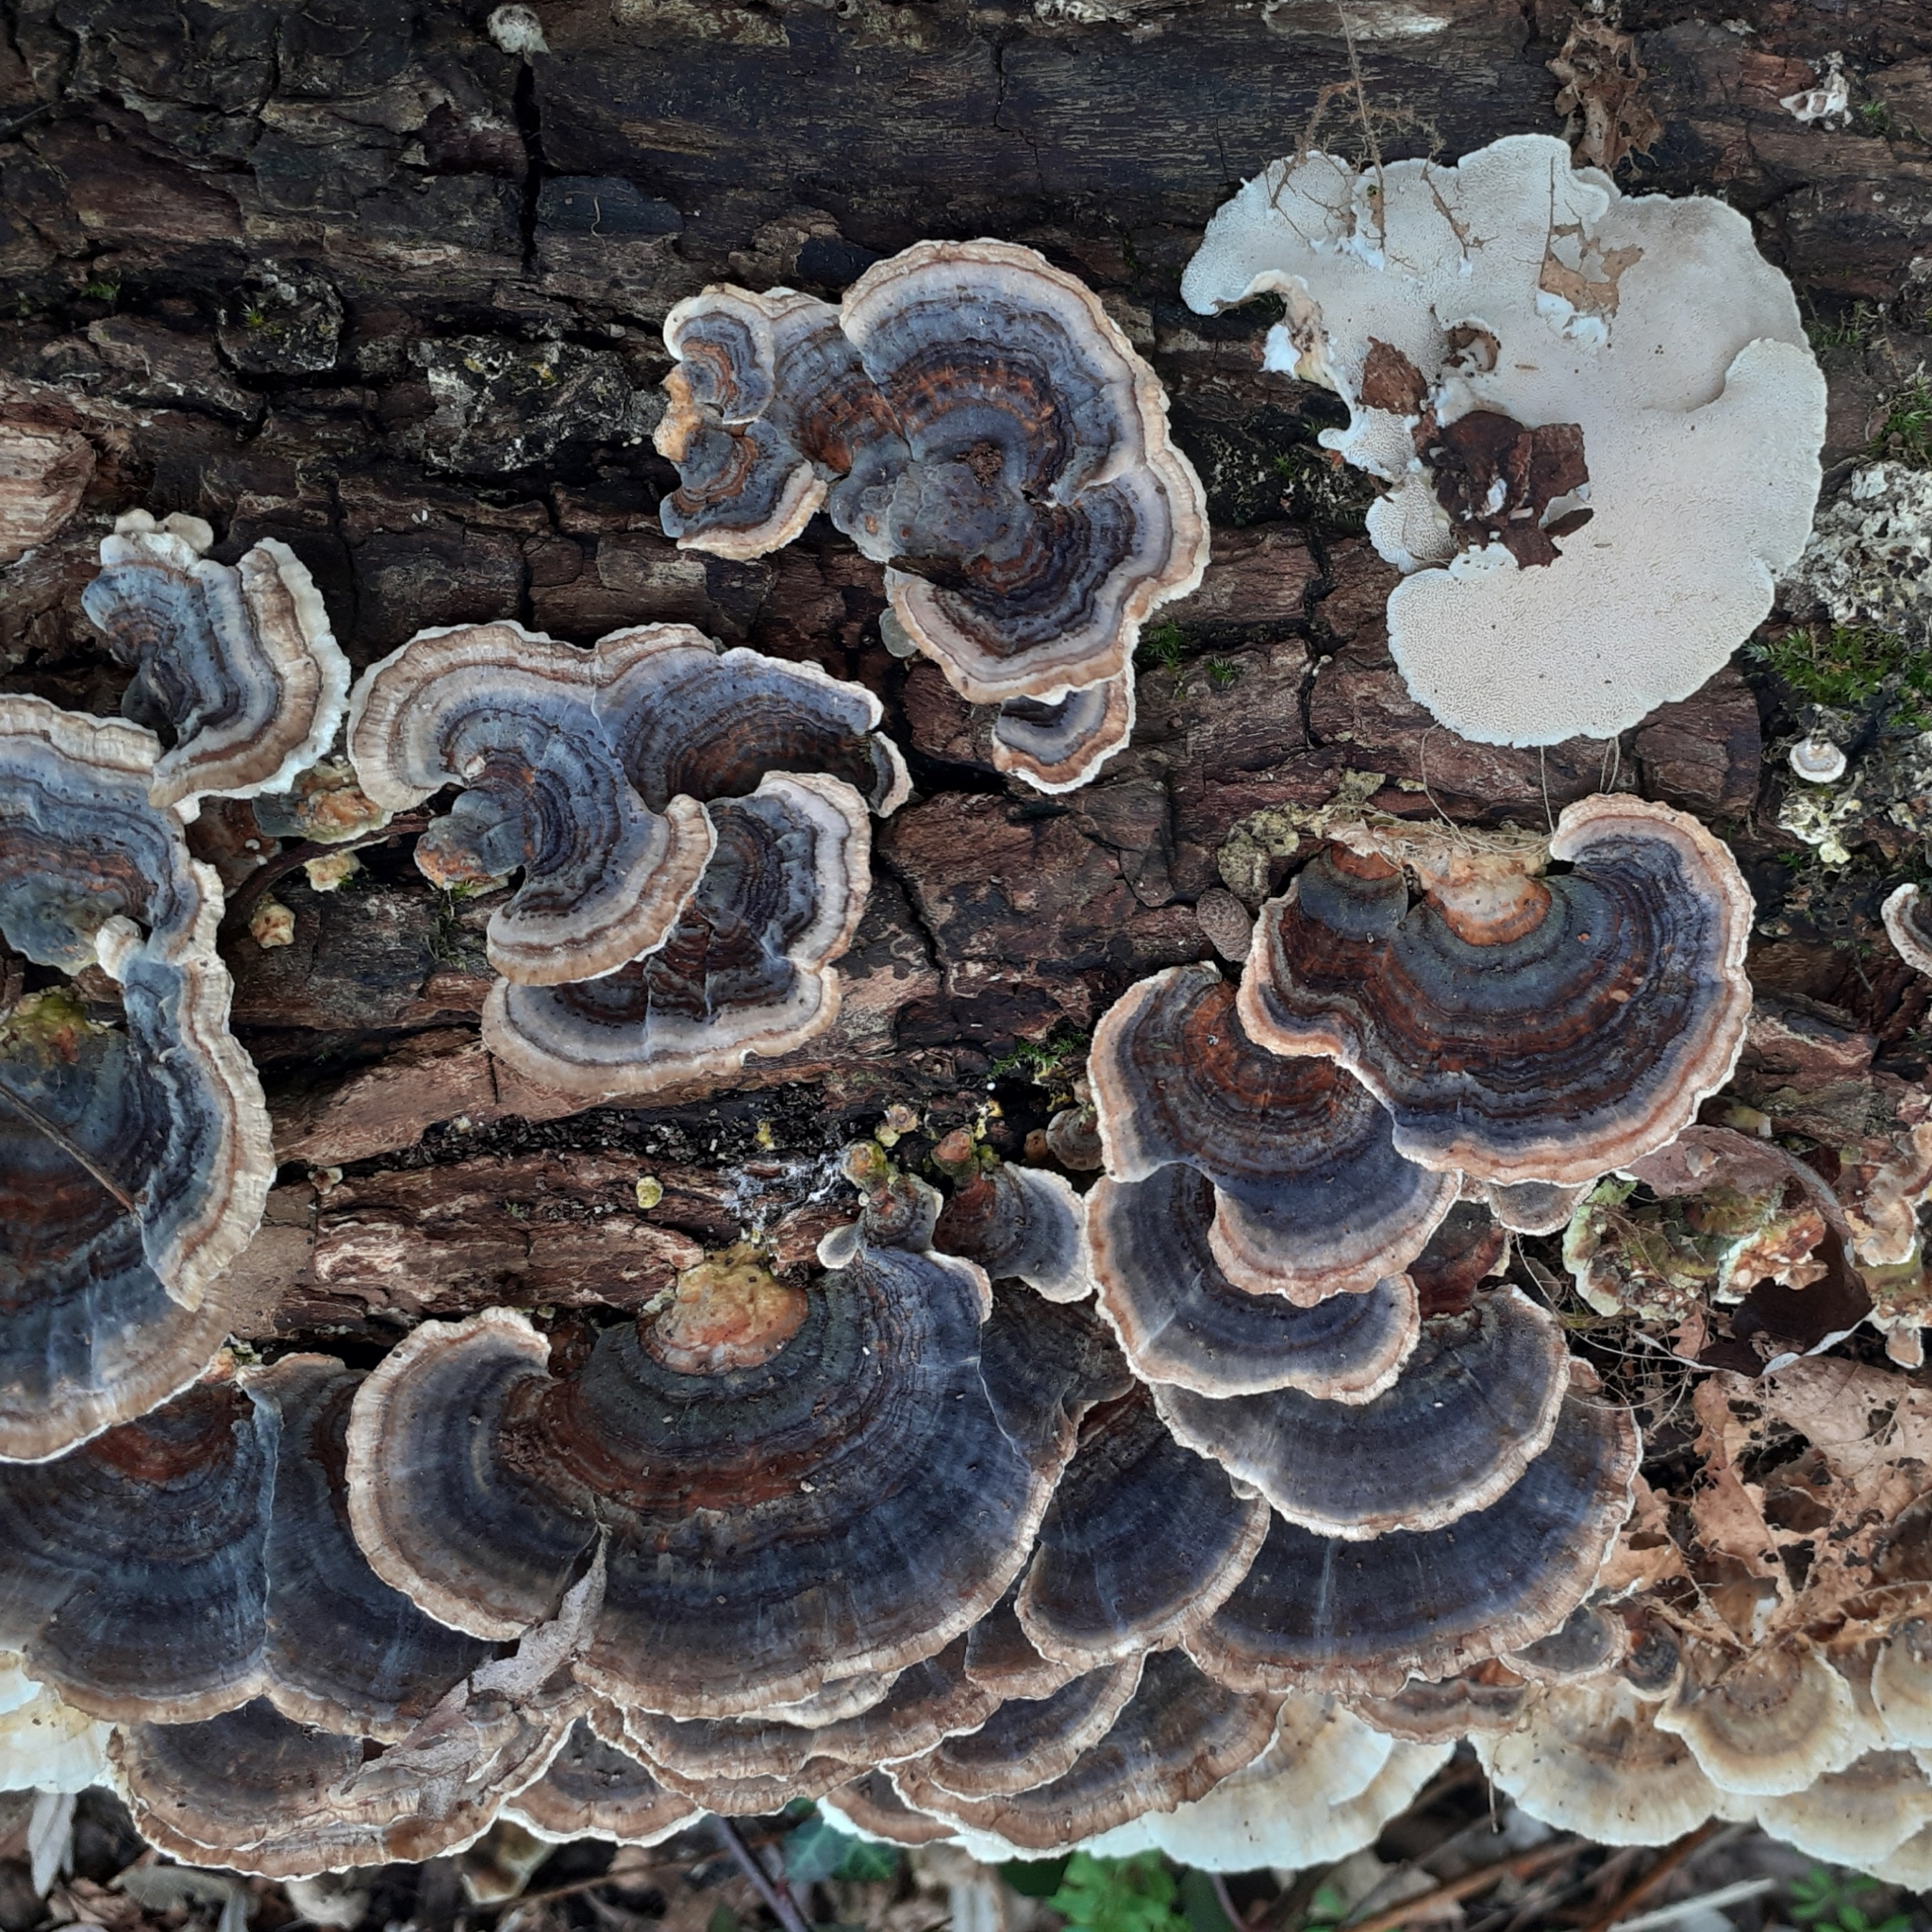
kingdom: Fungi
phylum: Basidiomycota
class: Agaricomycetes
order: Polyporales
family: Polyporaceae
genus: Trametes
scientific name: Trametes versicolor
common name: Turkeytail
